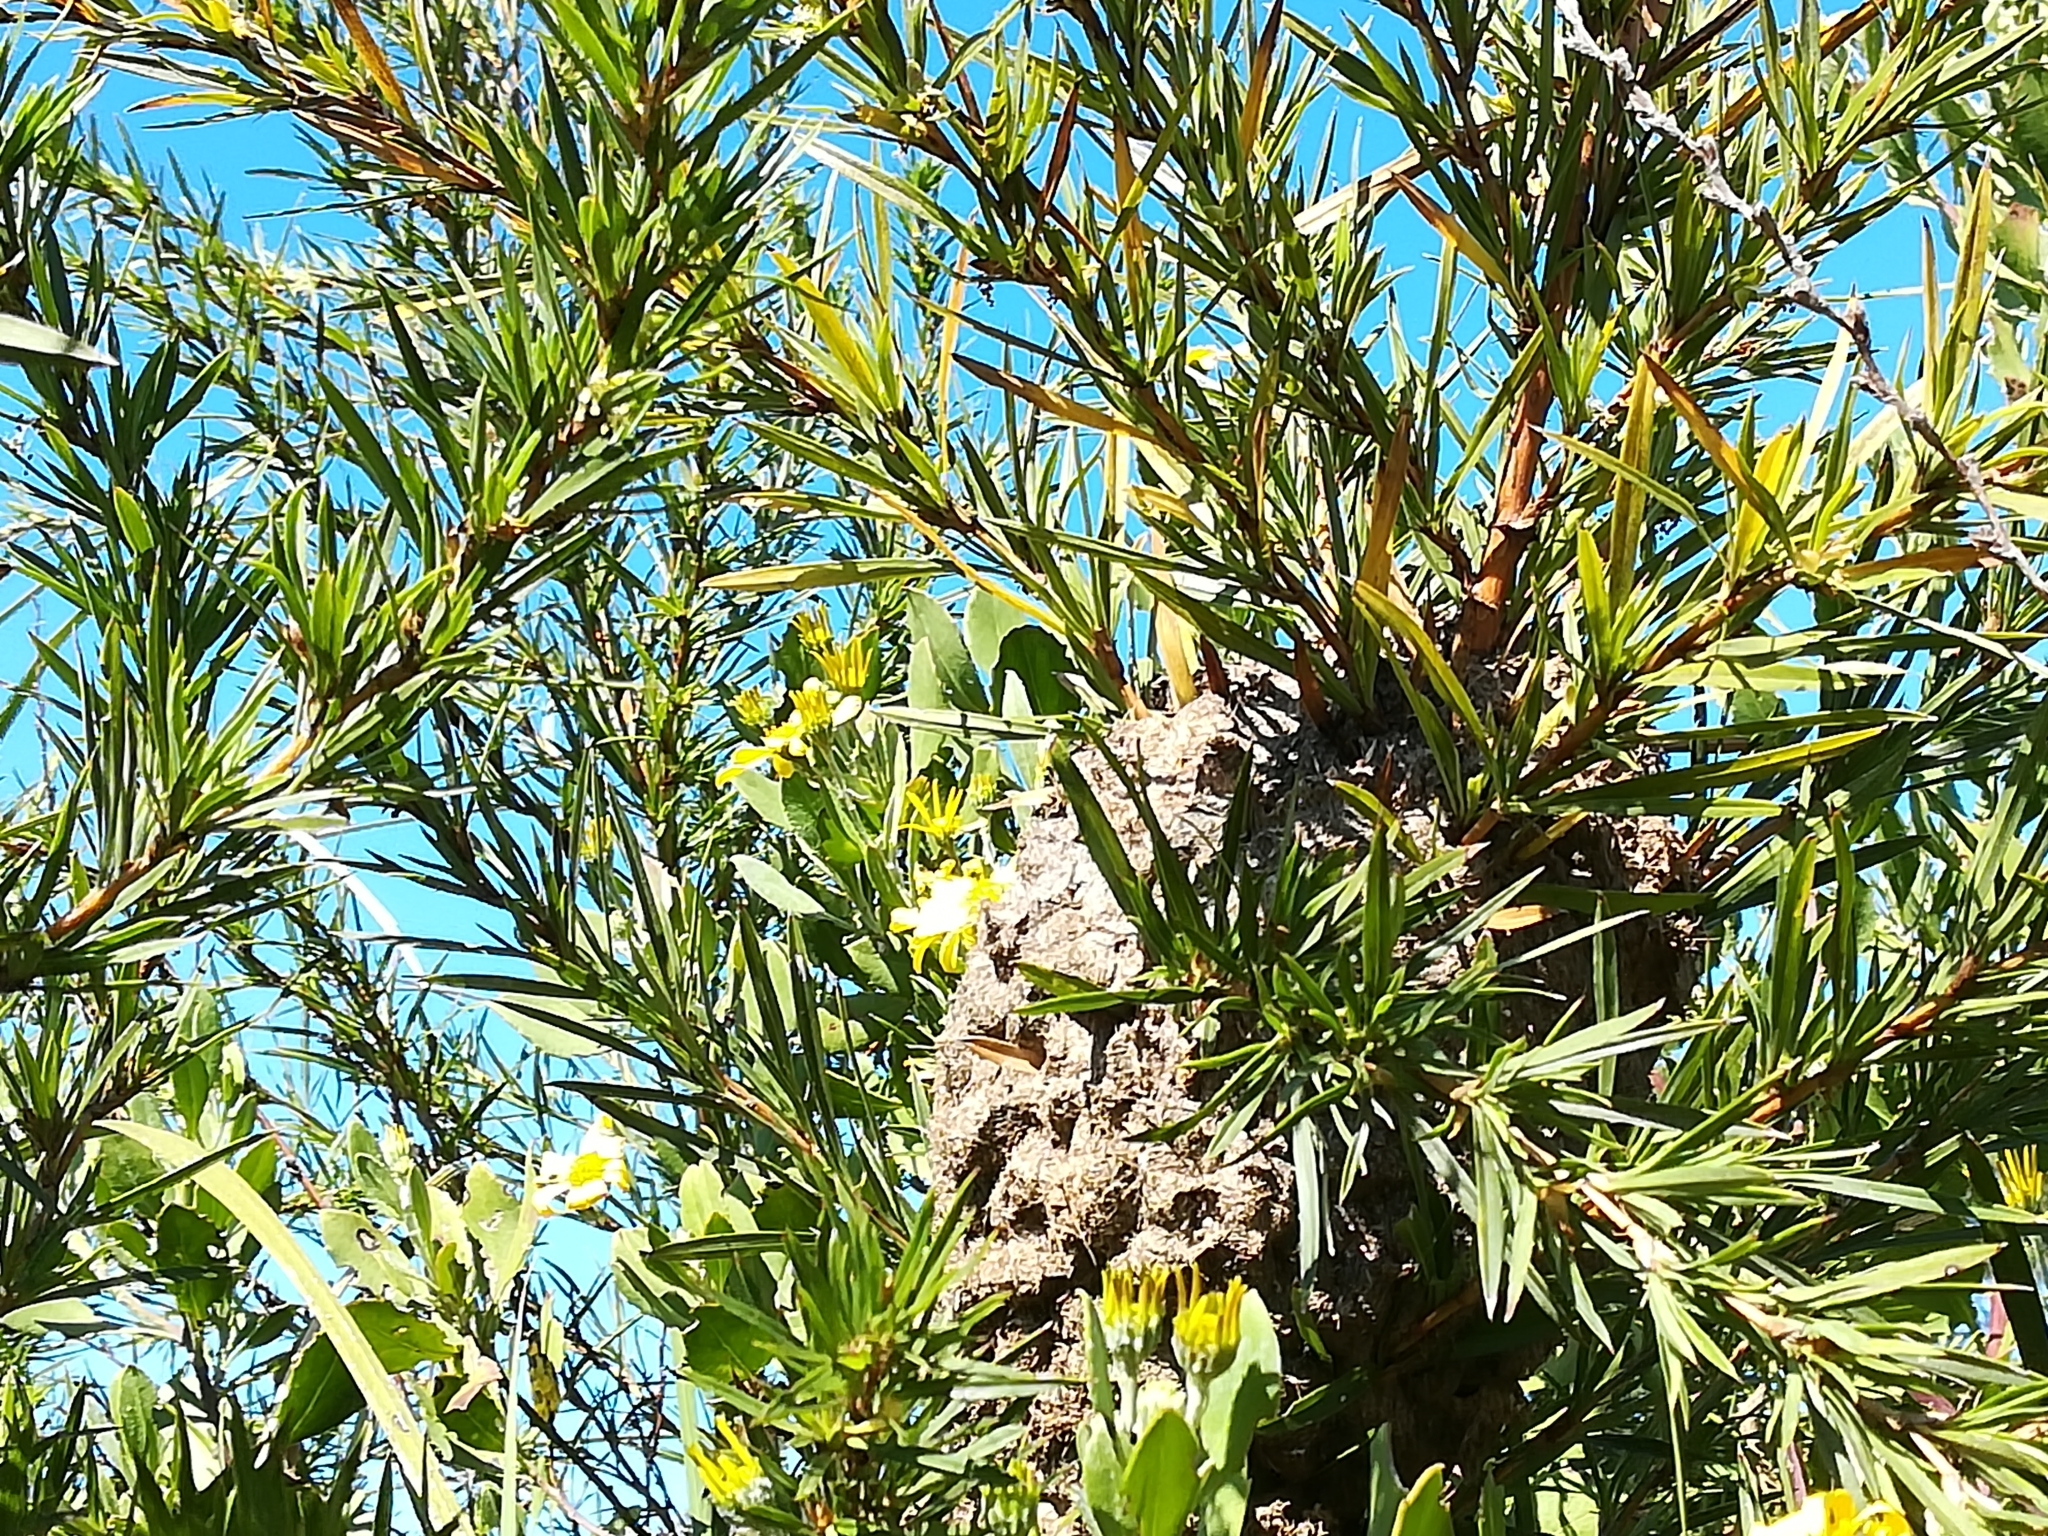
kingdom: Animalia
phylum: Arthropoda
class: Insecta
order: Hymenoptera
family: Formicidae
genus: Crematogaster
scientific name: Crematogaster peringueyi
